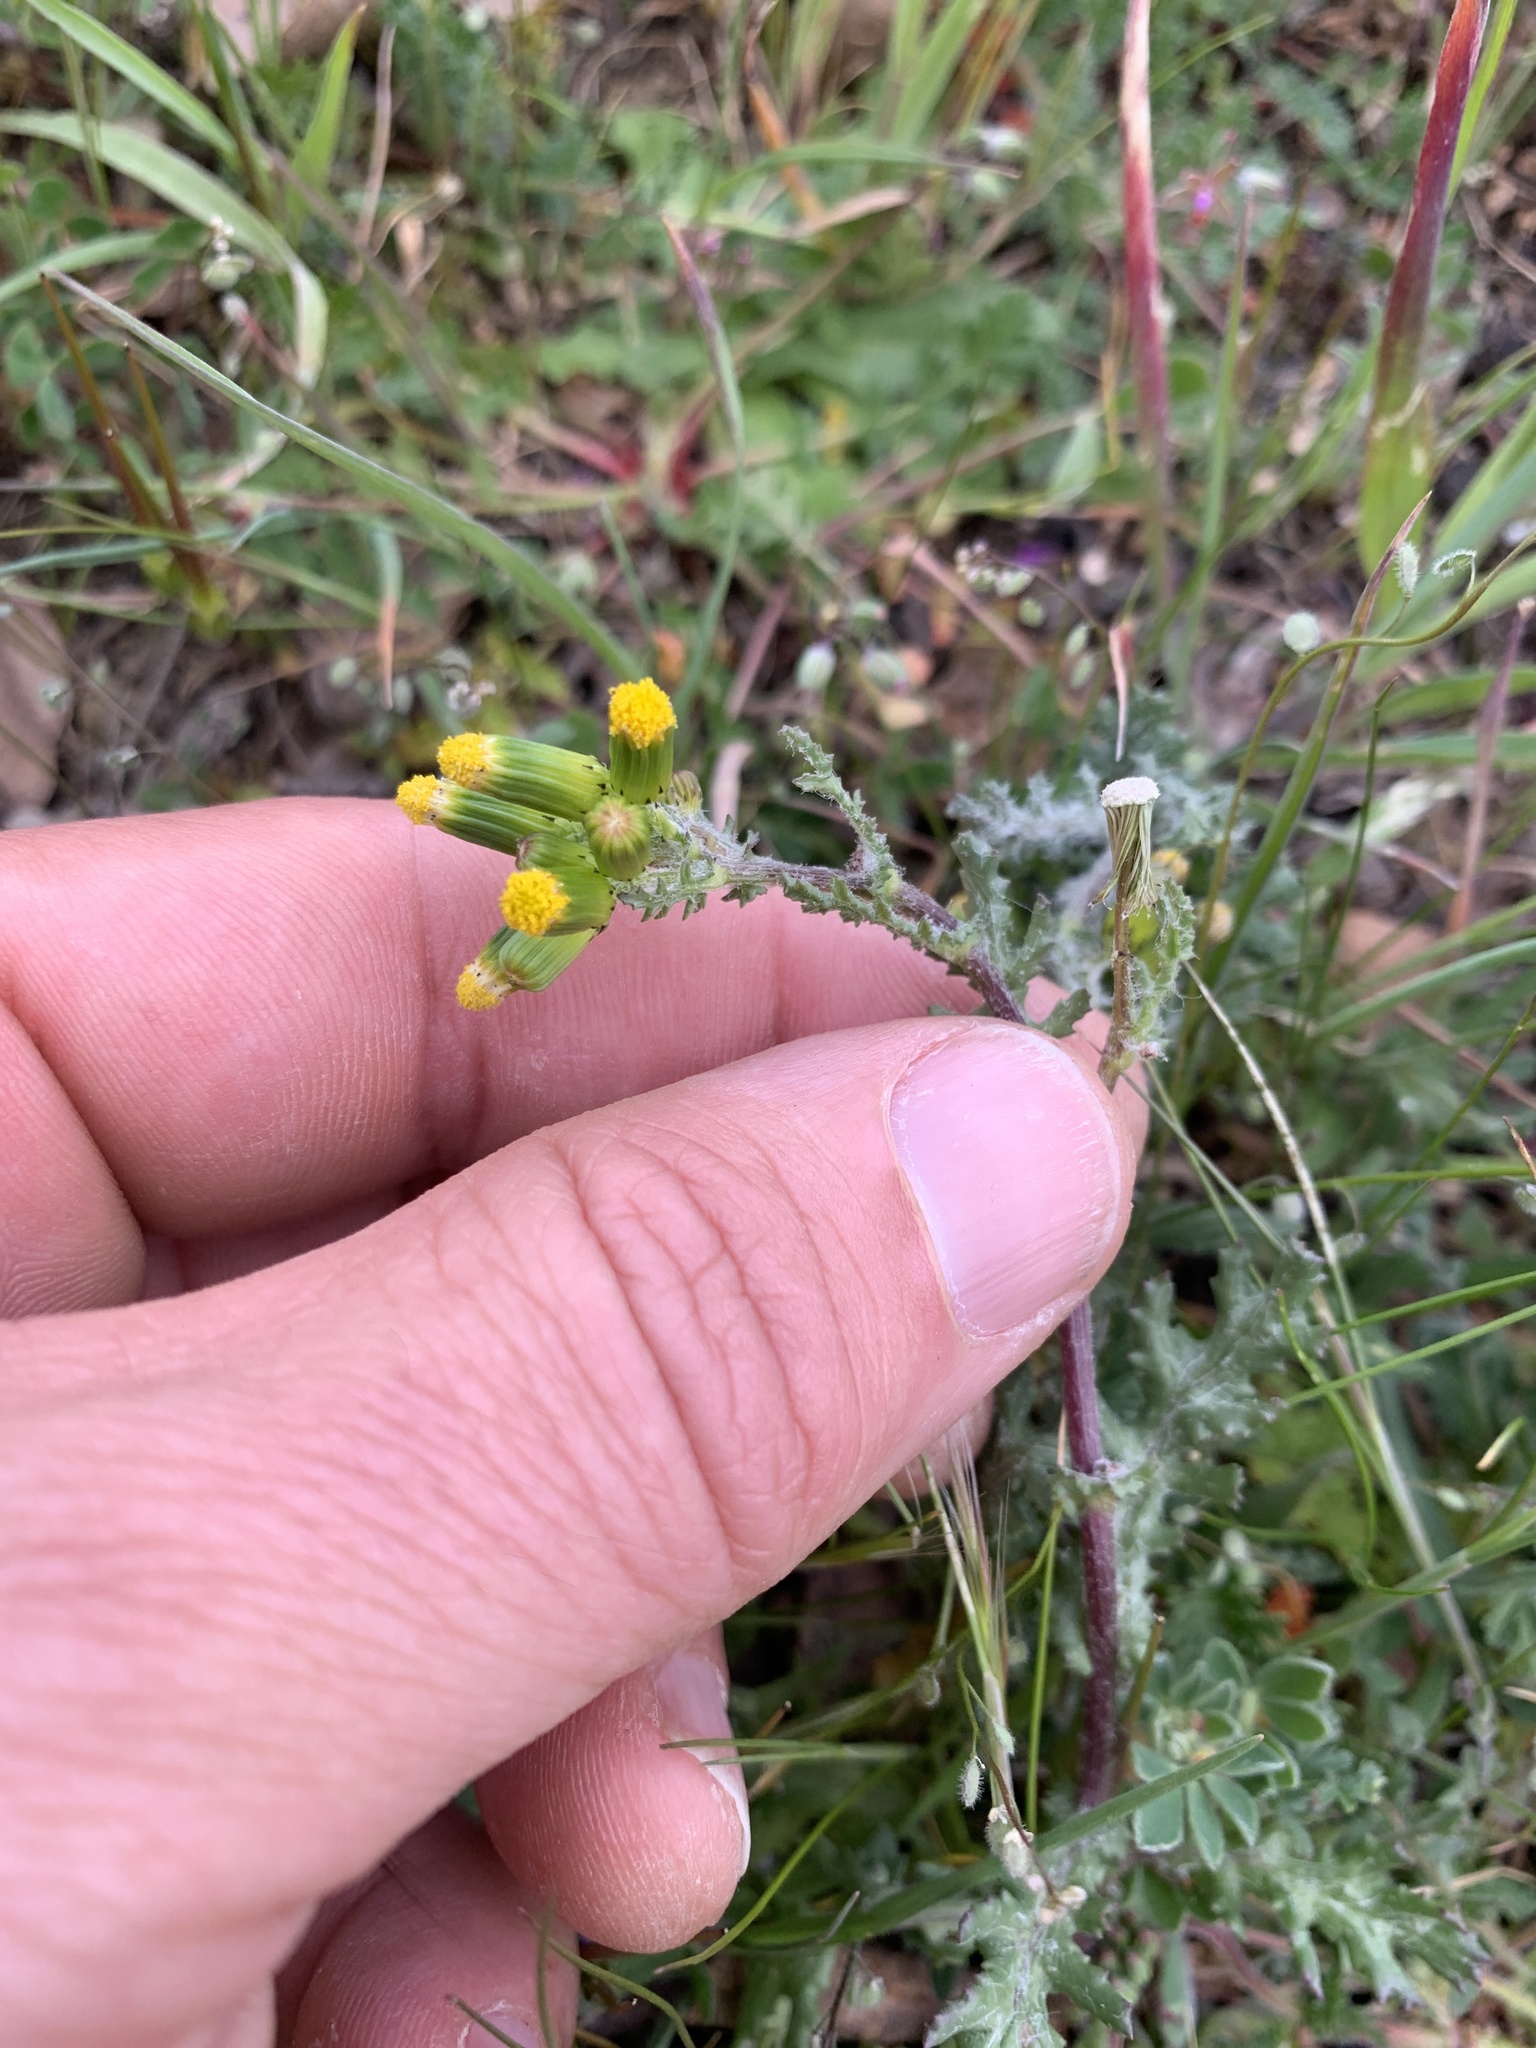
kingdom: Plantae
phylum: Tracheophyta
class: Magnoliopsida
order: Asterales
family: Asteraceae
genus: Senecio
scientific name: Senecio vulgaris
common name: Old-man-in-the-spring
